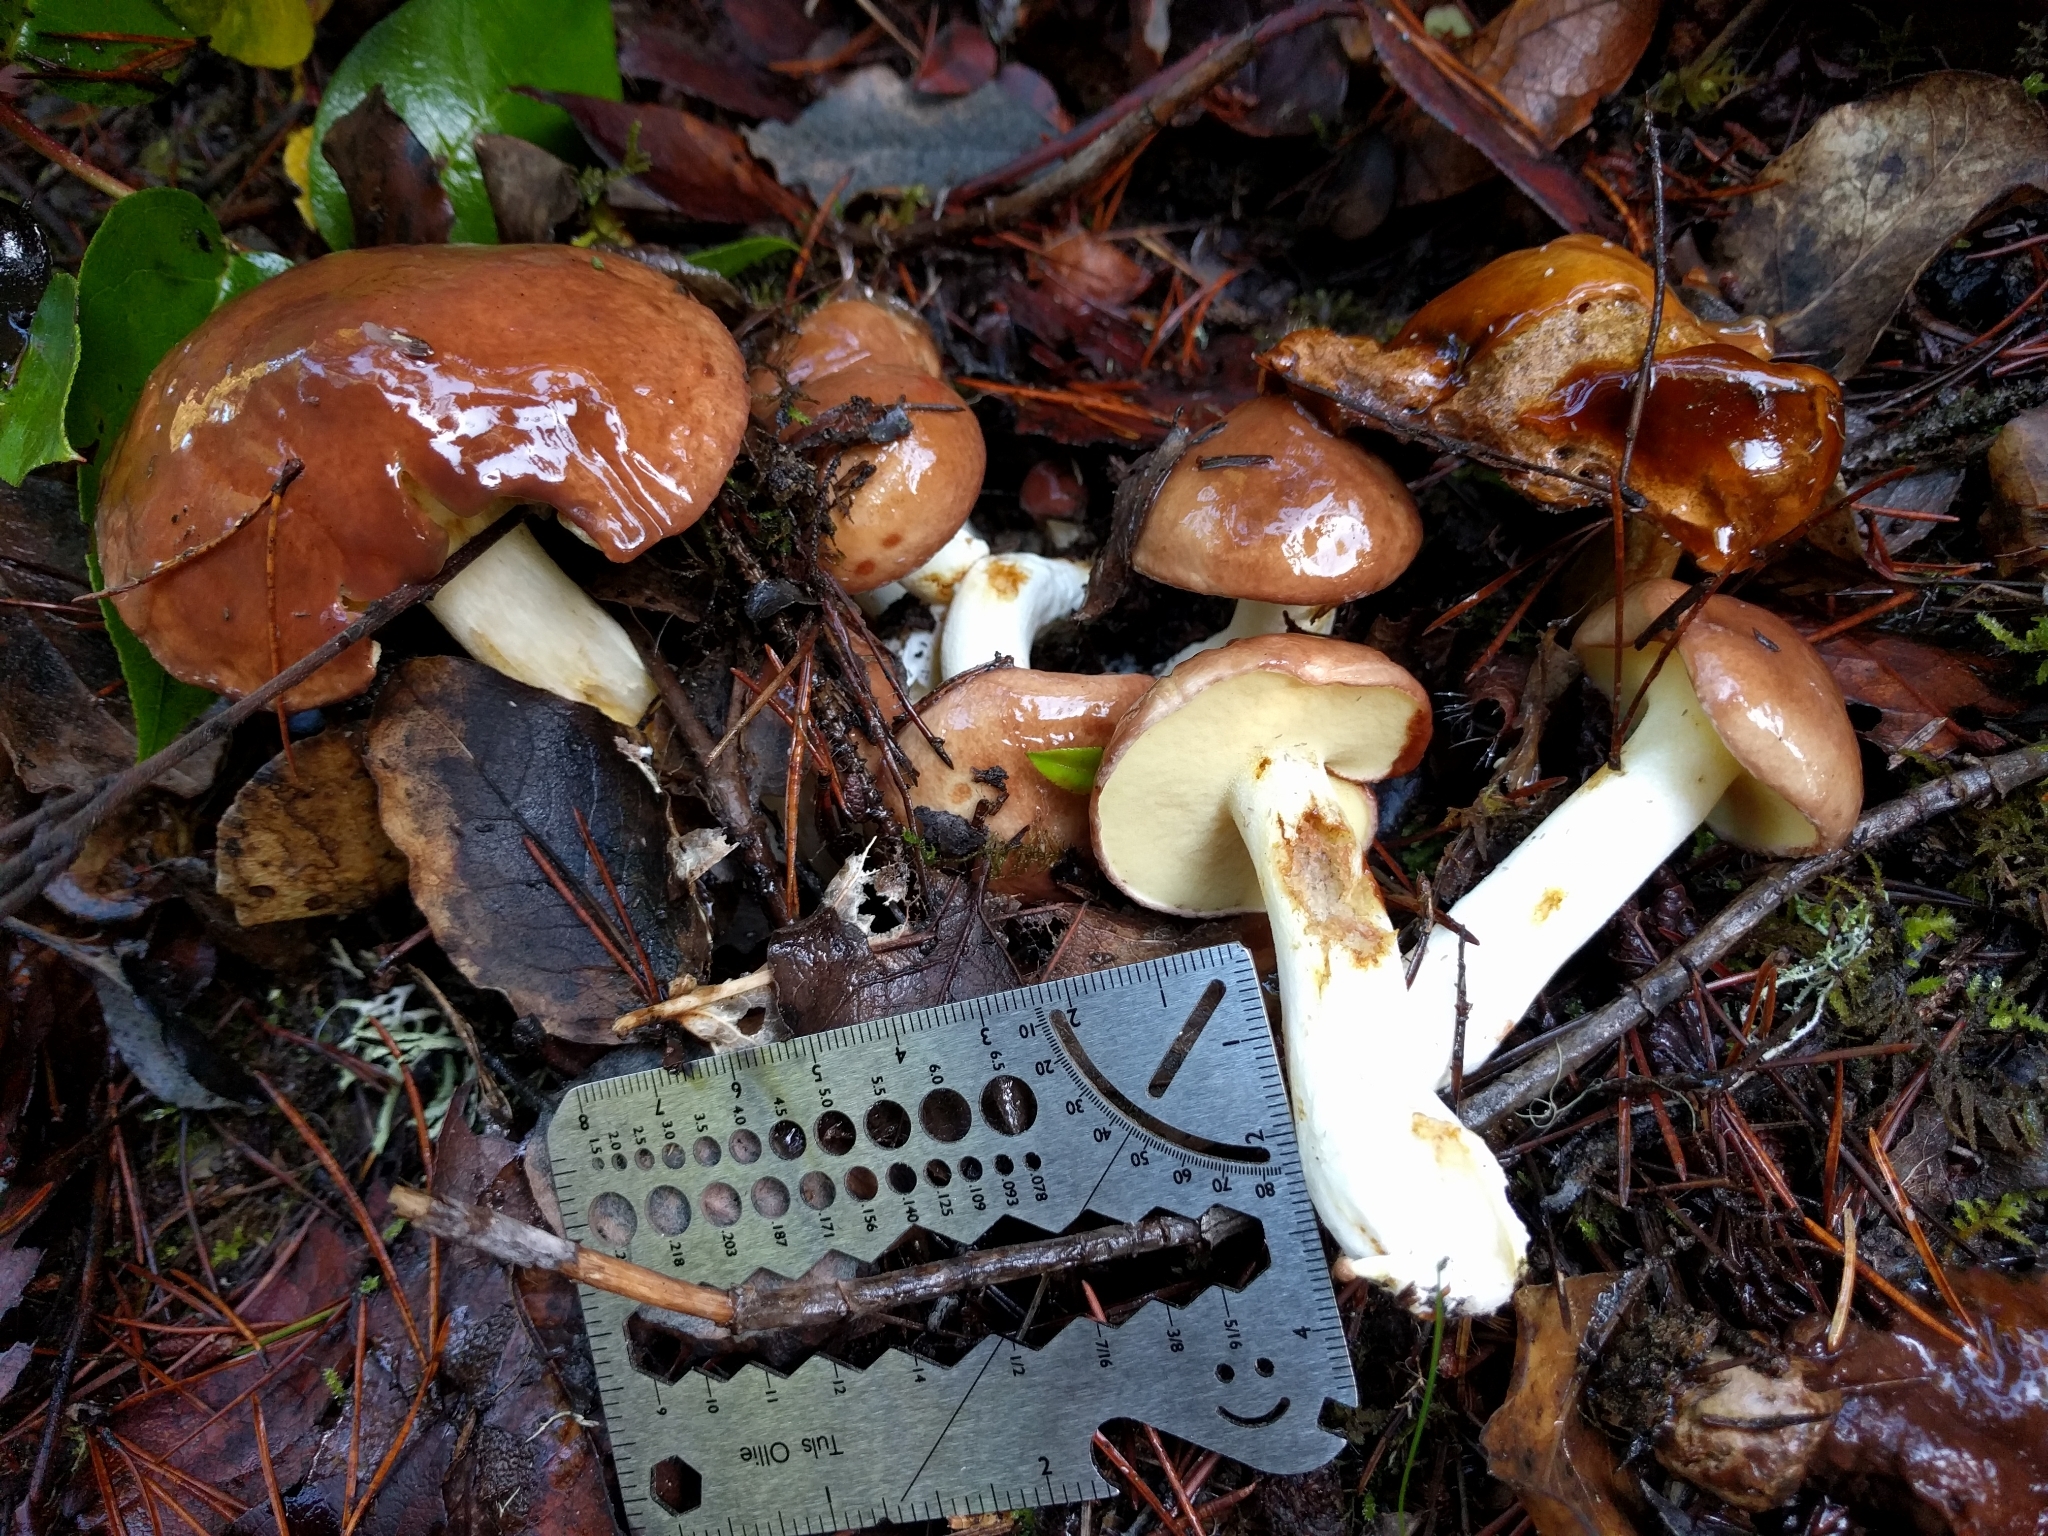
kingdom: Fungi
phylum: Basidiomycota
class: Agaricomycetes
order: Boletales
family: Suillaceae
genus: Suillus
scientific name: Suillus brevipes
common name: Short-stalked suillus
